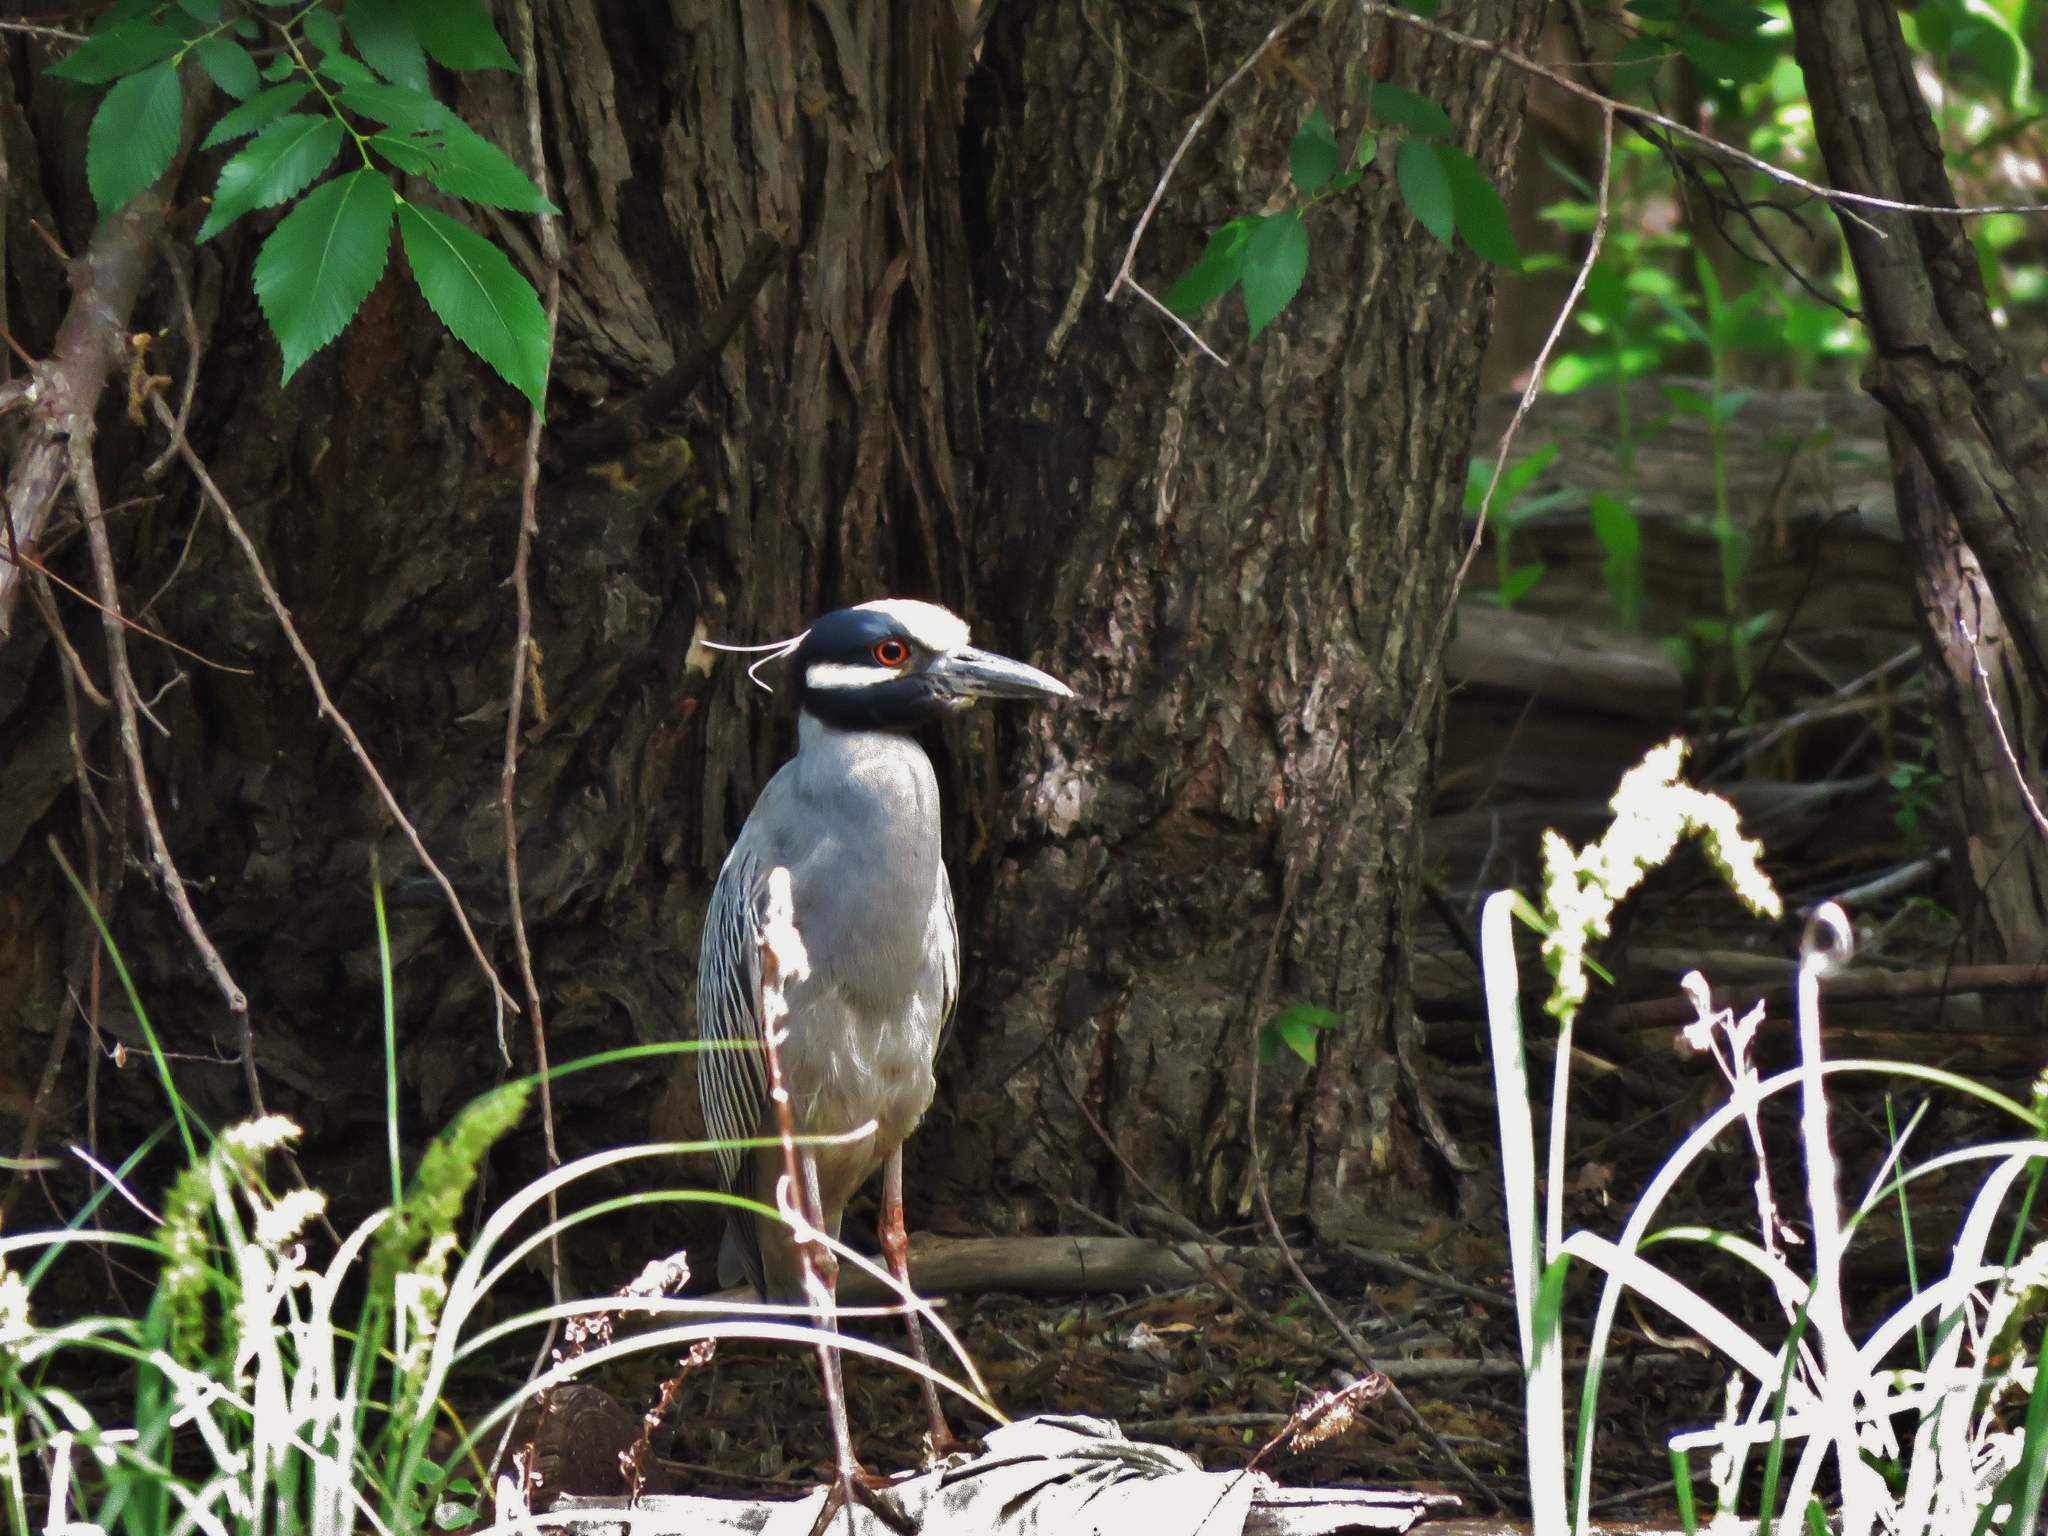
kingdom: Animalia
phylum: Chordata
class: Aves
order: Pelecaniformes
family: Ardeidae
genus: Nyctanassa
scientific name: Nyctanassa violacea
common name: Yellow-crowned night heron
